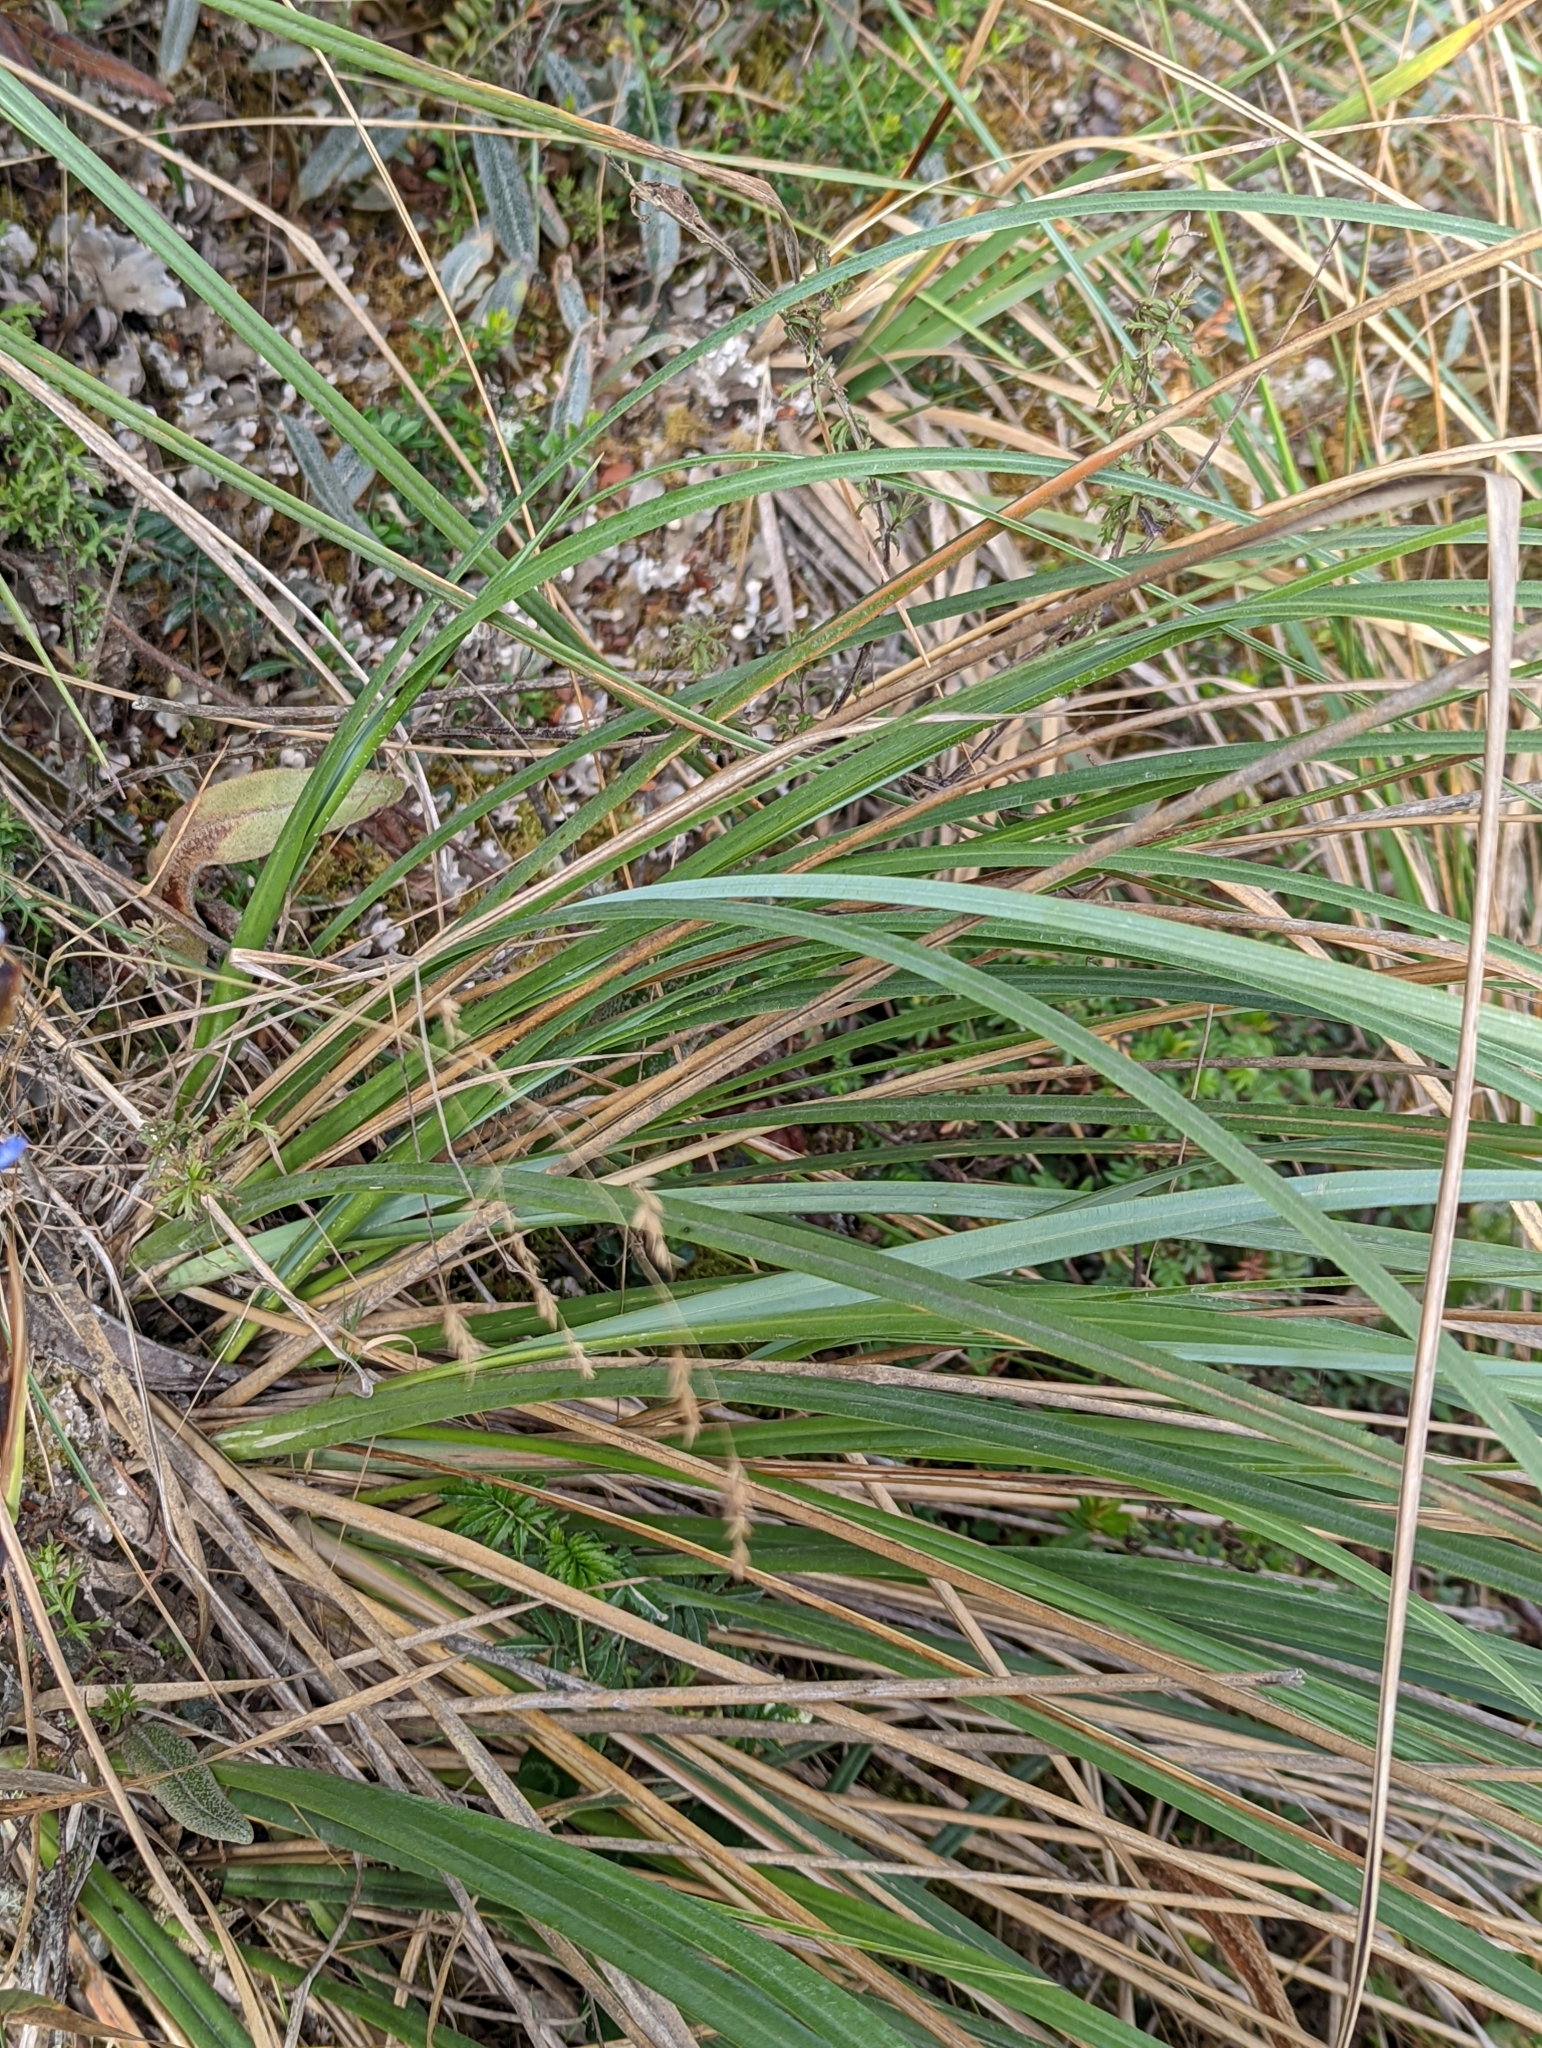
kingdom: Plantae
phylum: Tracheophyta
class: Liliopsida
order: Asparagales
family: Iridaceae
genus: Orthrosanthus
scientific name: Orthrosanthus chimboracensis
